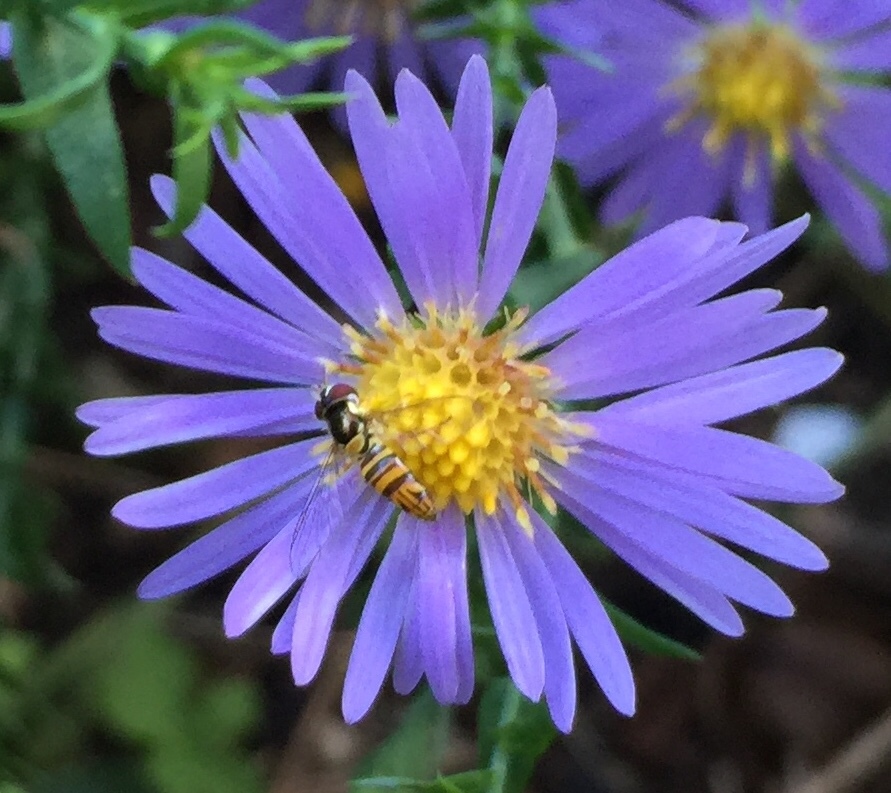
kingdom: Animalia
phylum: Arthropoda
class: Insecta
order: Diptera
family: Syrphidae
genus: Allograpta
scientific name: Allograpta obliqua
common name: Common oblique syrphid
